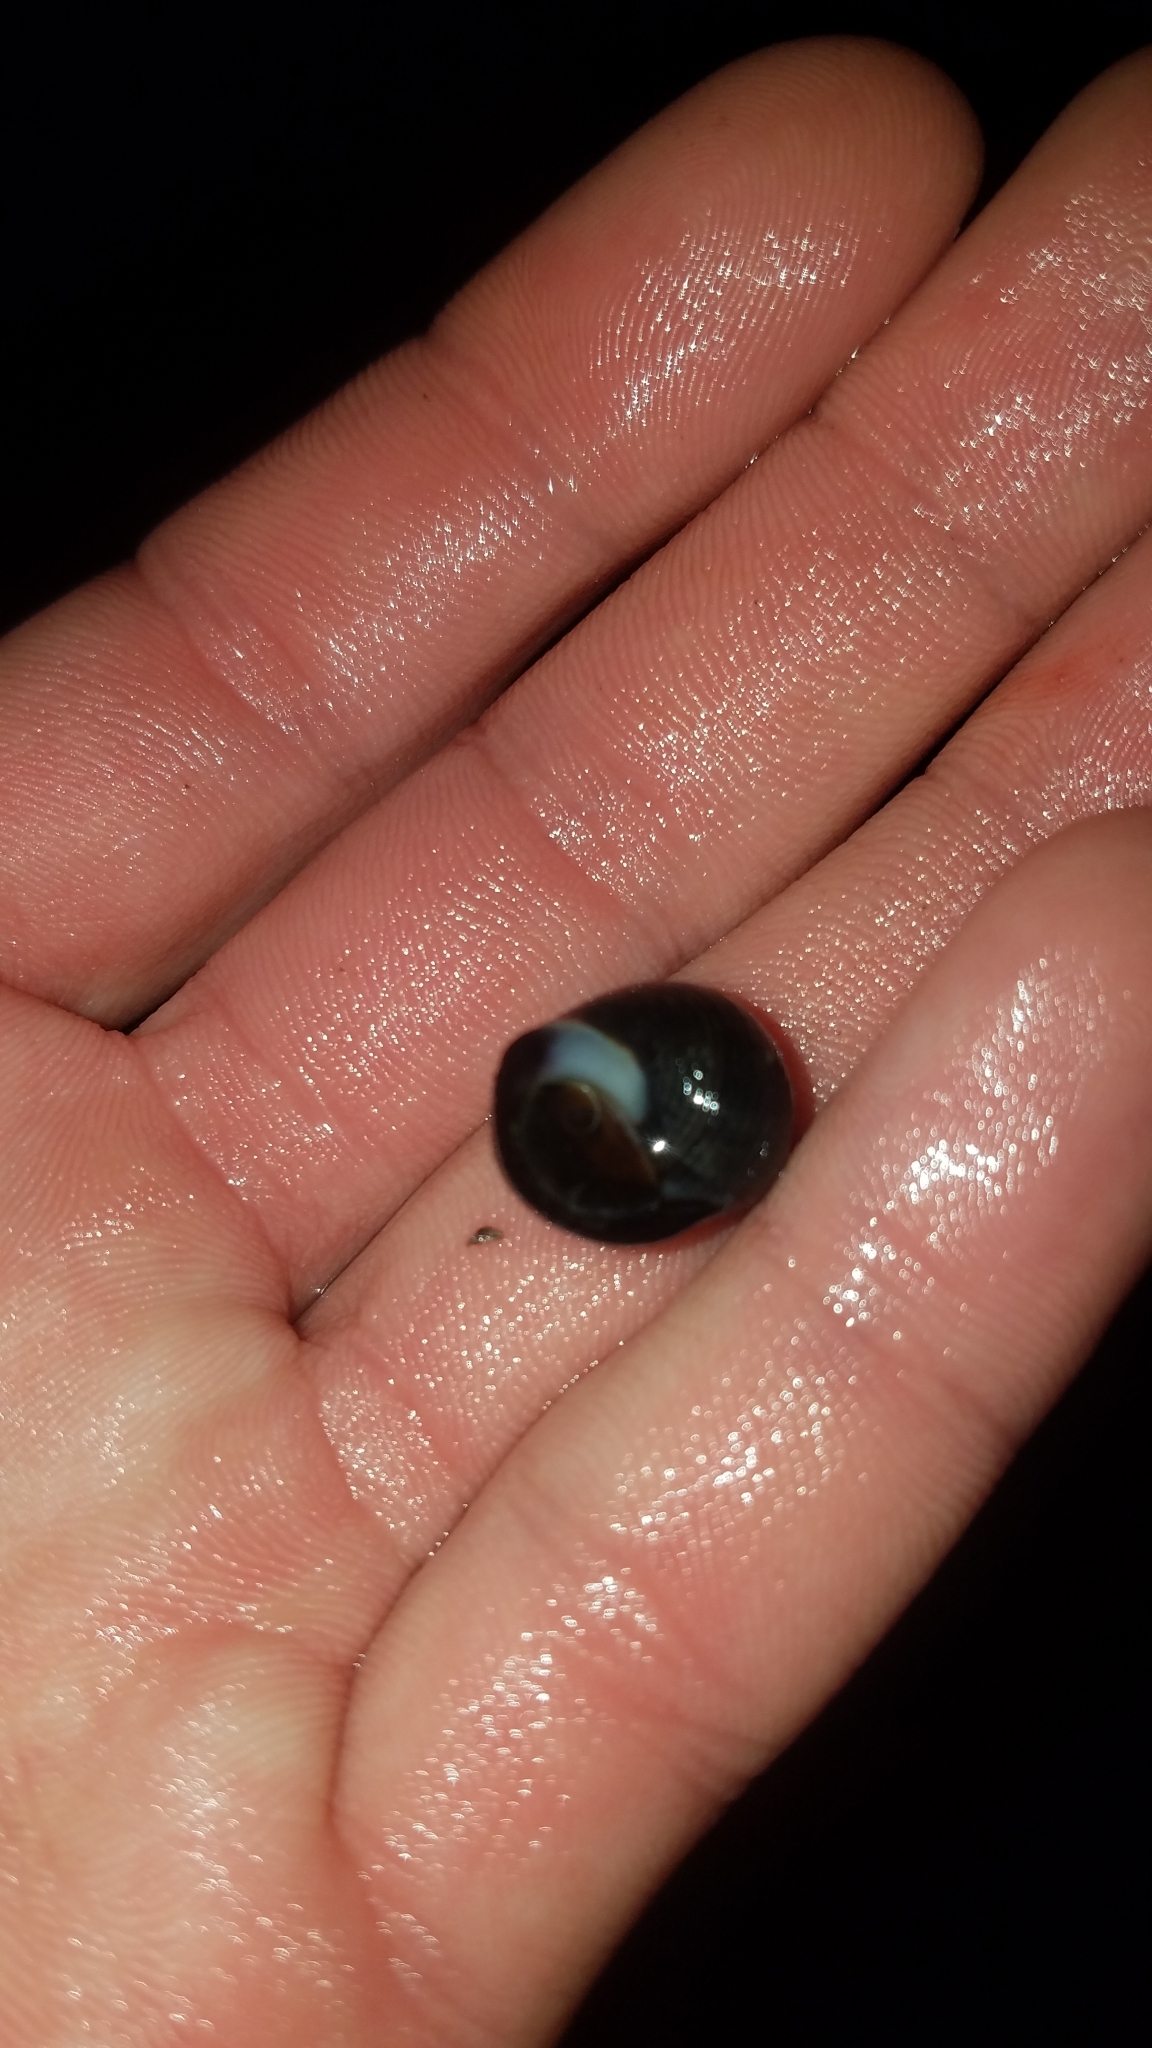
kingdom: Animalia
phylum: Mollusca
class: Gastropoda
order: Littorinimorpha
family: Littorinidae
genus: Littorina
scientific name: Littorina littorea
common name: Common periwinkle
